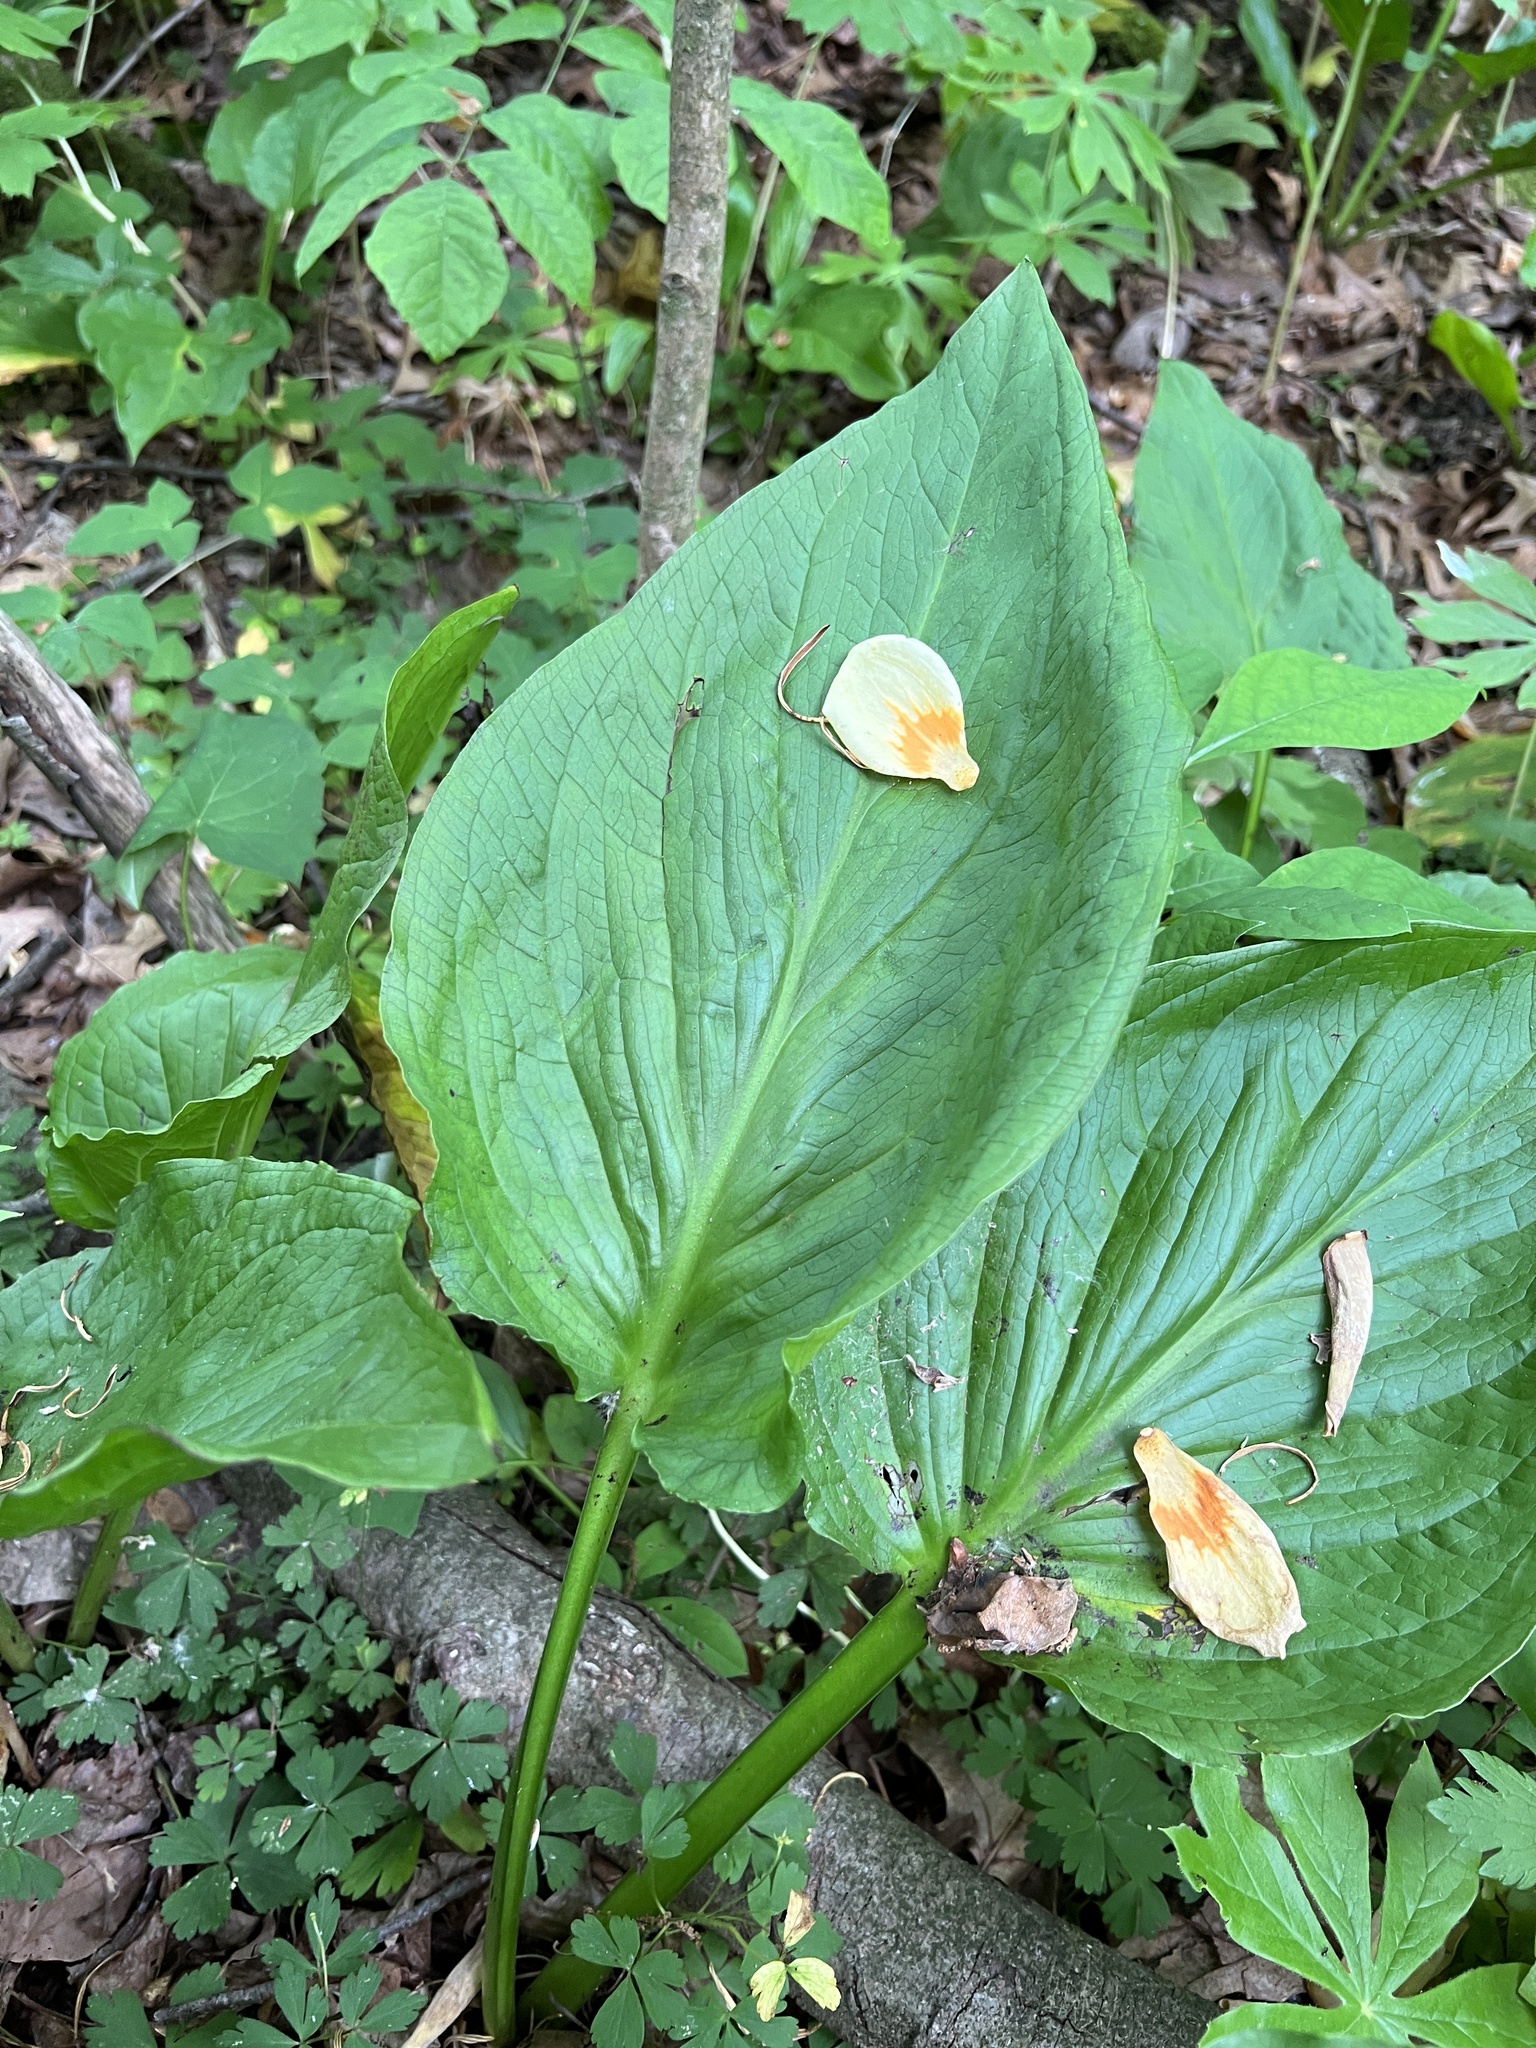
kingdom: Plantae
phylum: Tracheophyta
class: Liliopsida
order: Alismatales
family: Araceae
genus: Symplocarpus
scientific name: Symplocarpus foetidus
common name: Eastern skunk cabbage
